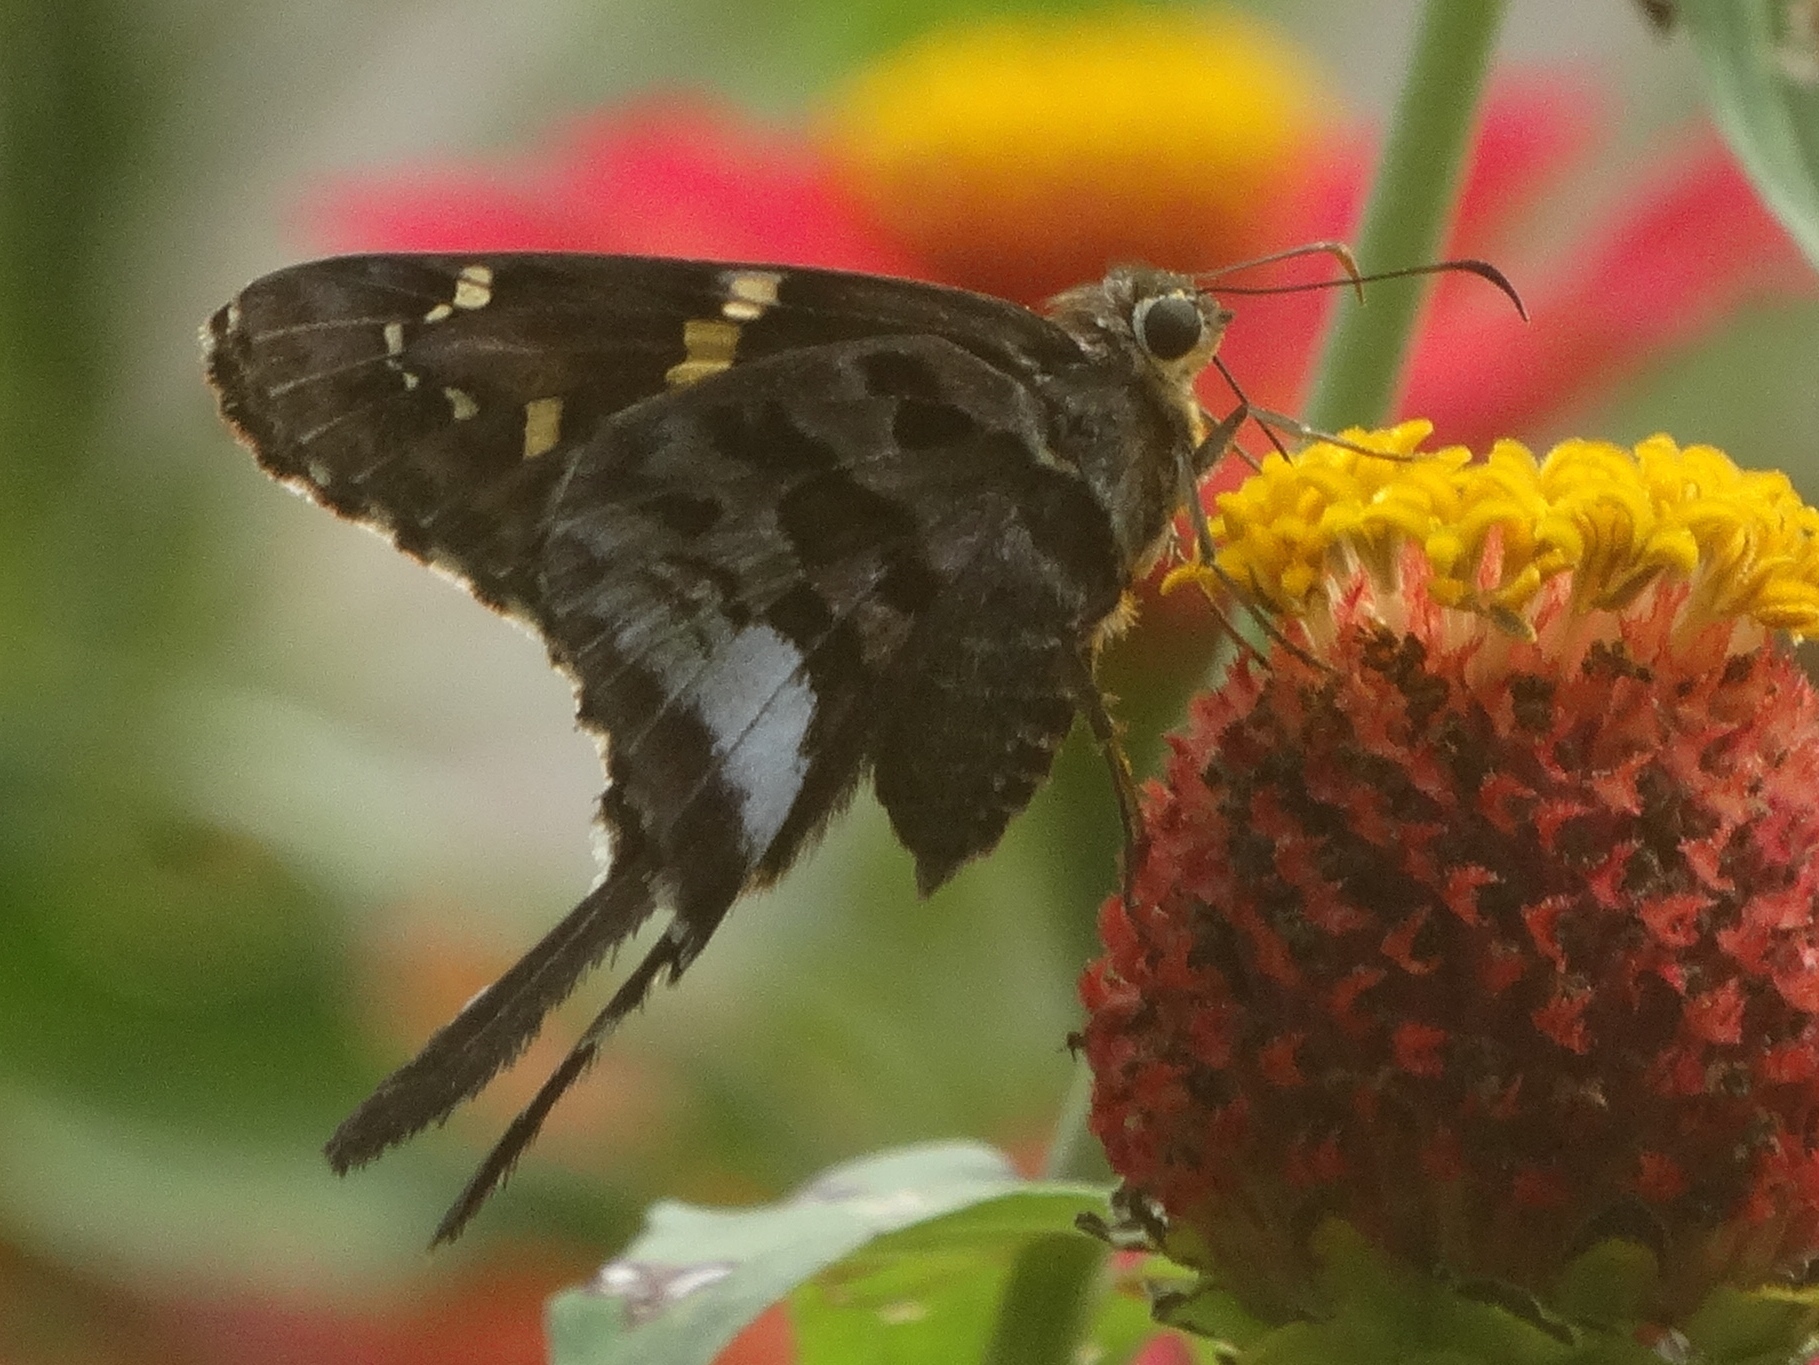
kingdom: Animalia
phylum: Arthropoda
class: Insecta
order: Lepidoptera
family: Hesperiidae
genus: Codatractus
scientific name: Codatractus
